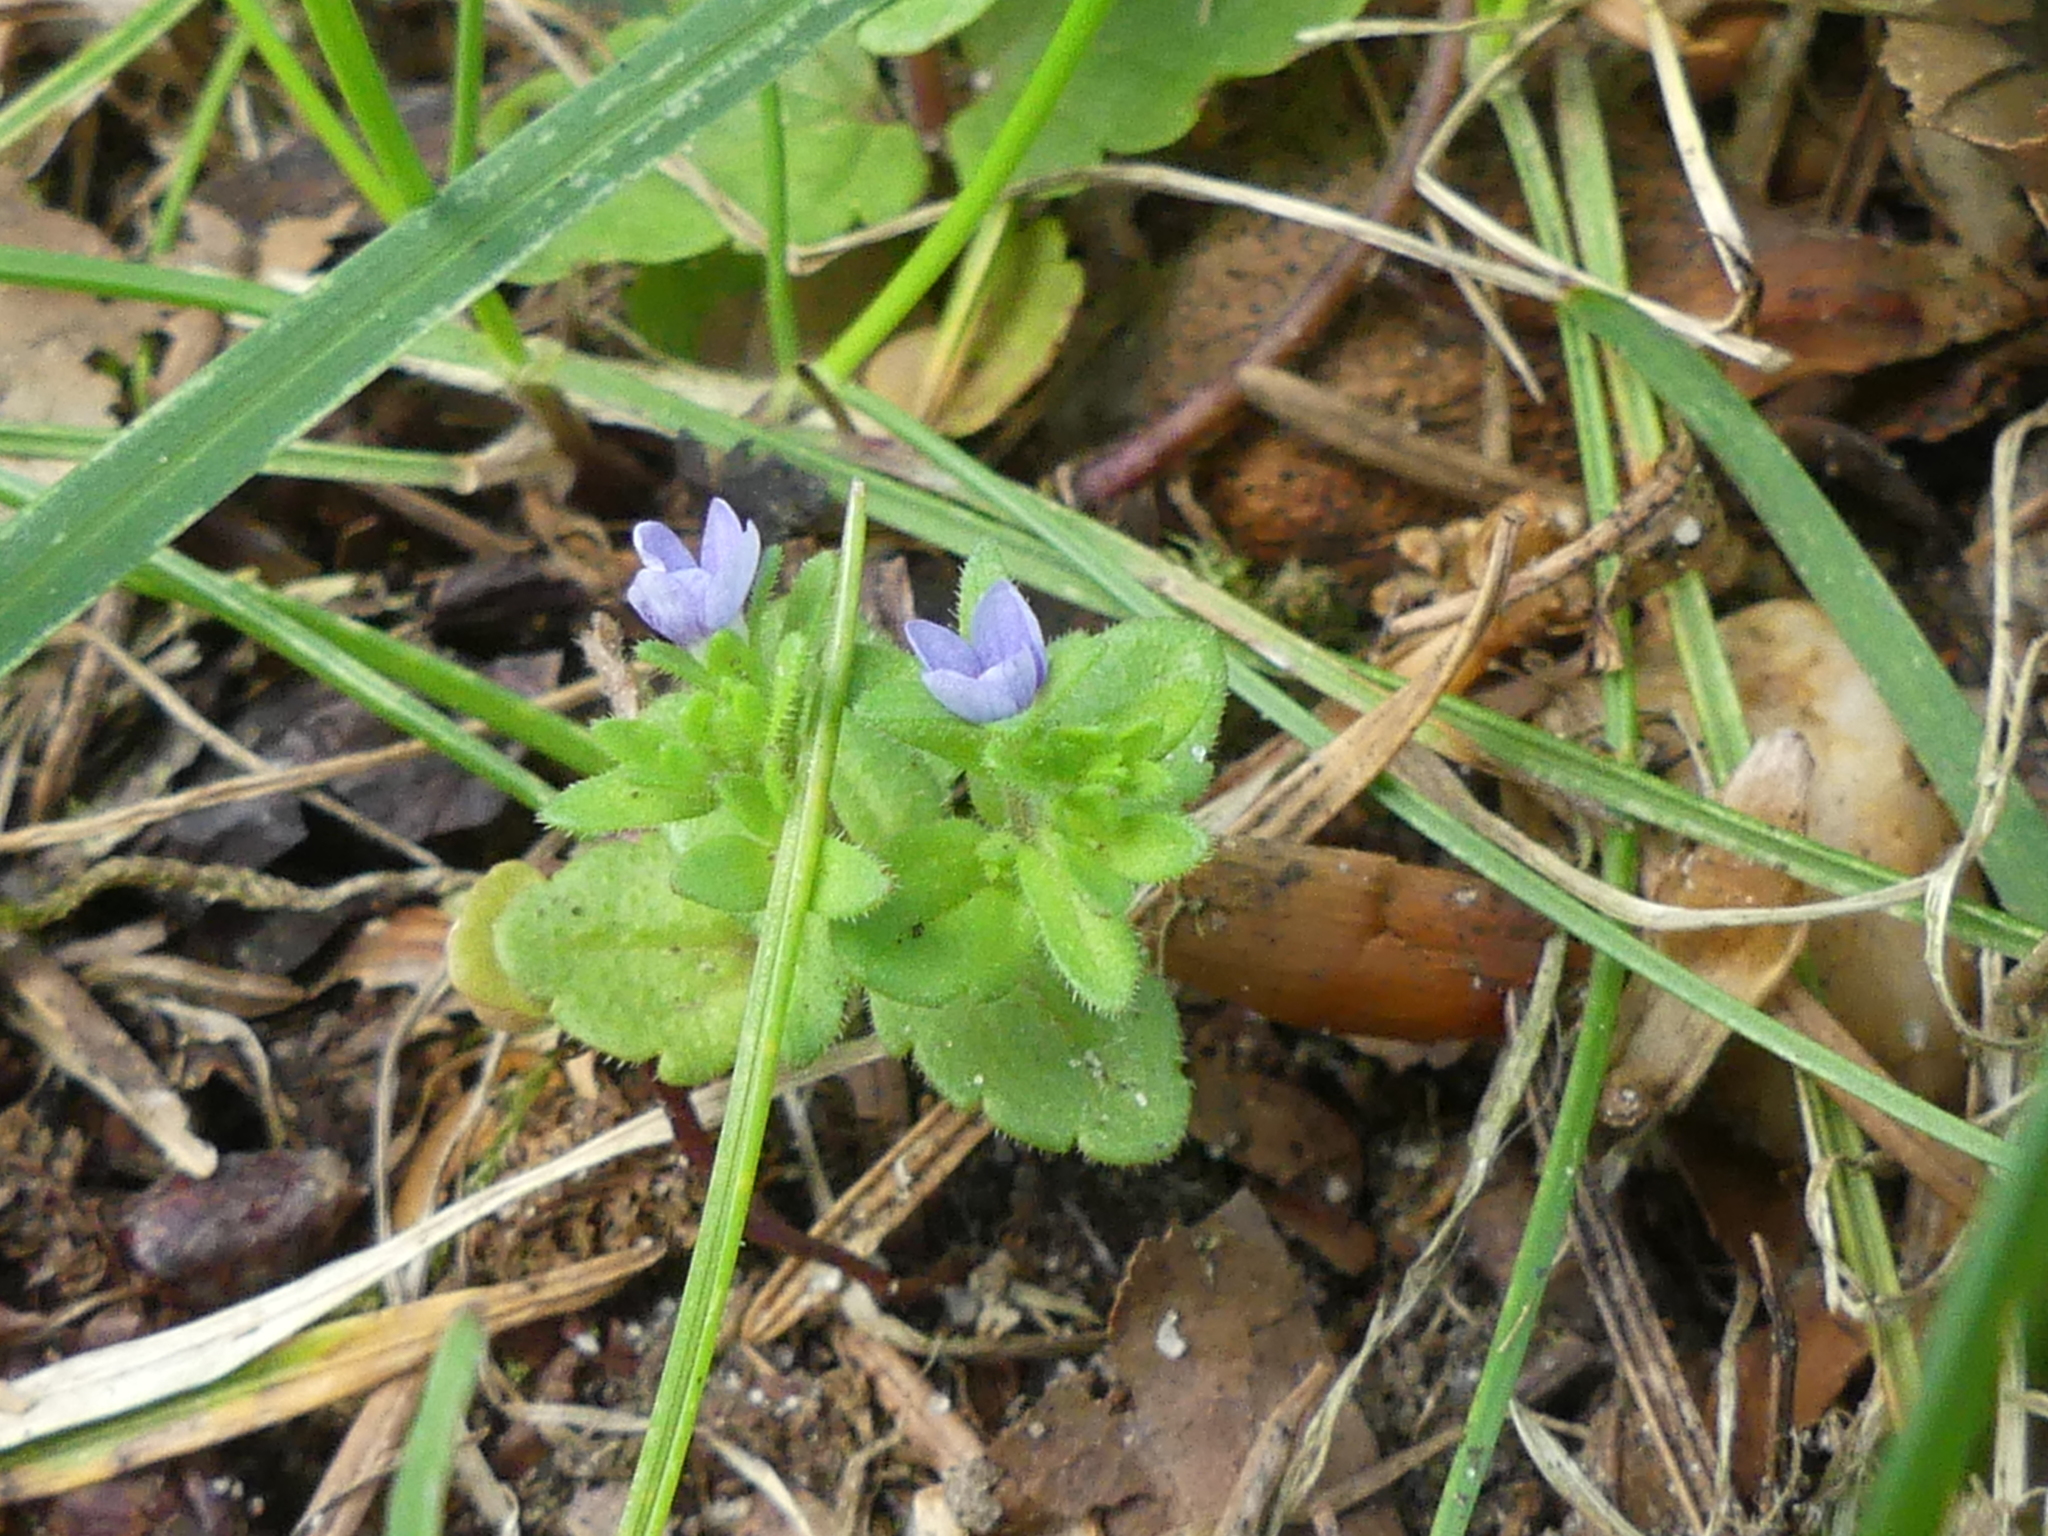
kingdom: Plantae
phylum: Tracheophyta
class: Magnoliopsida
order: Lamiales
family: Plantaginaceae
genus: Veronica
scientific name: Veronica arvensis
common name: Corn speedwell
